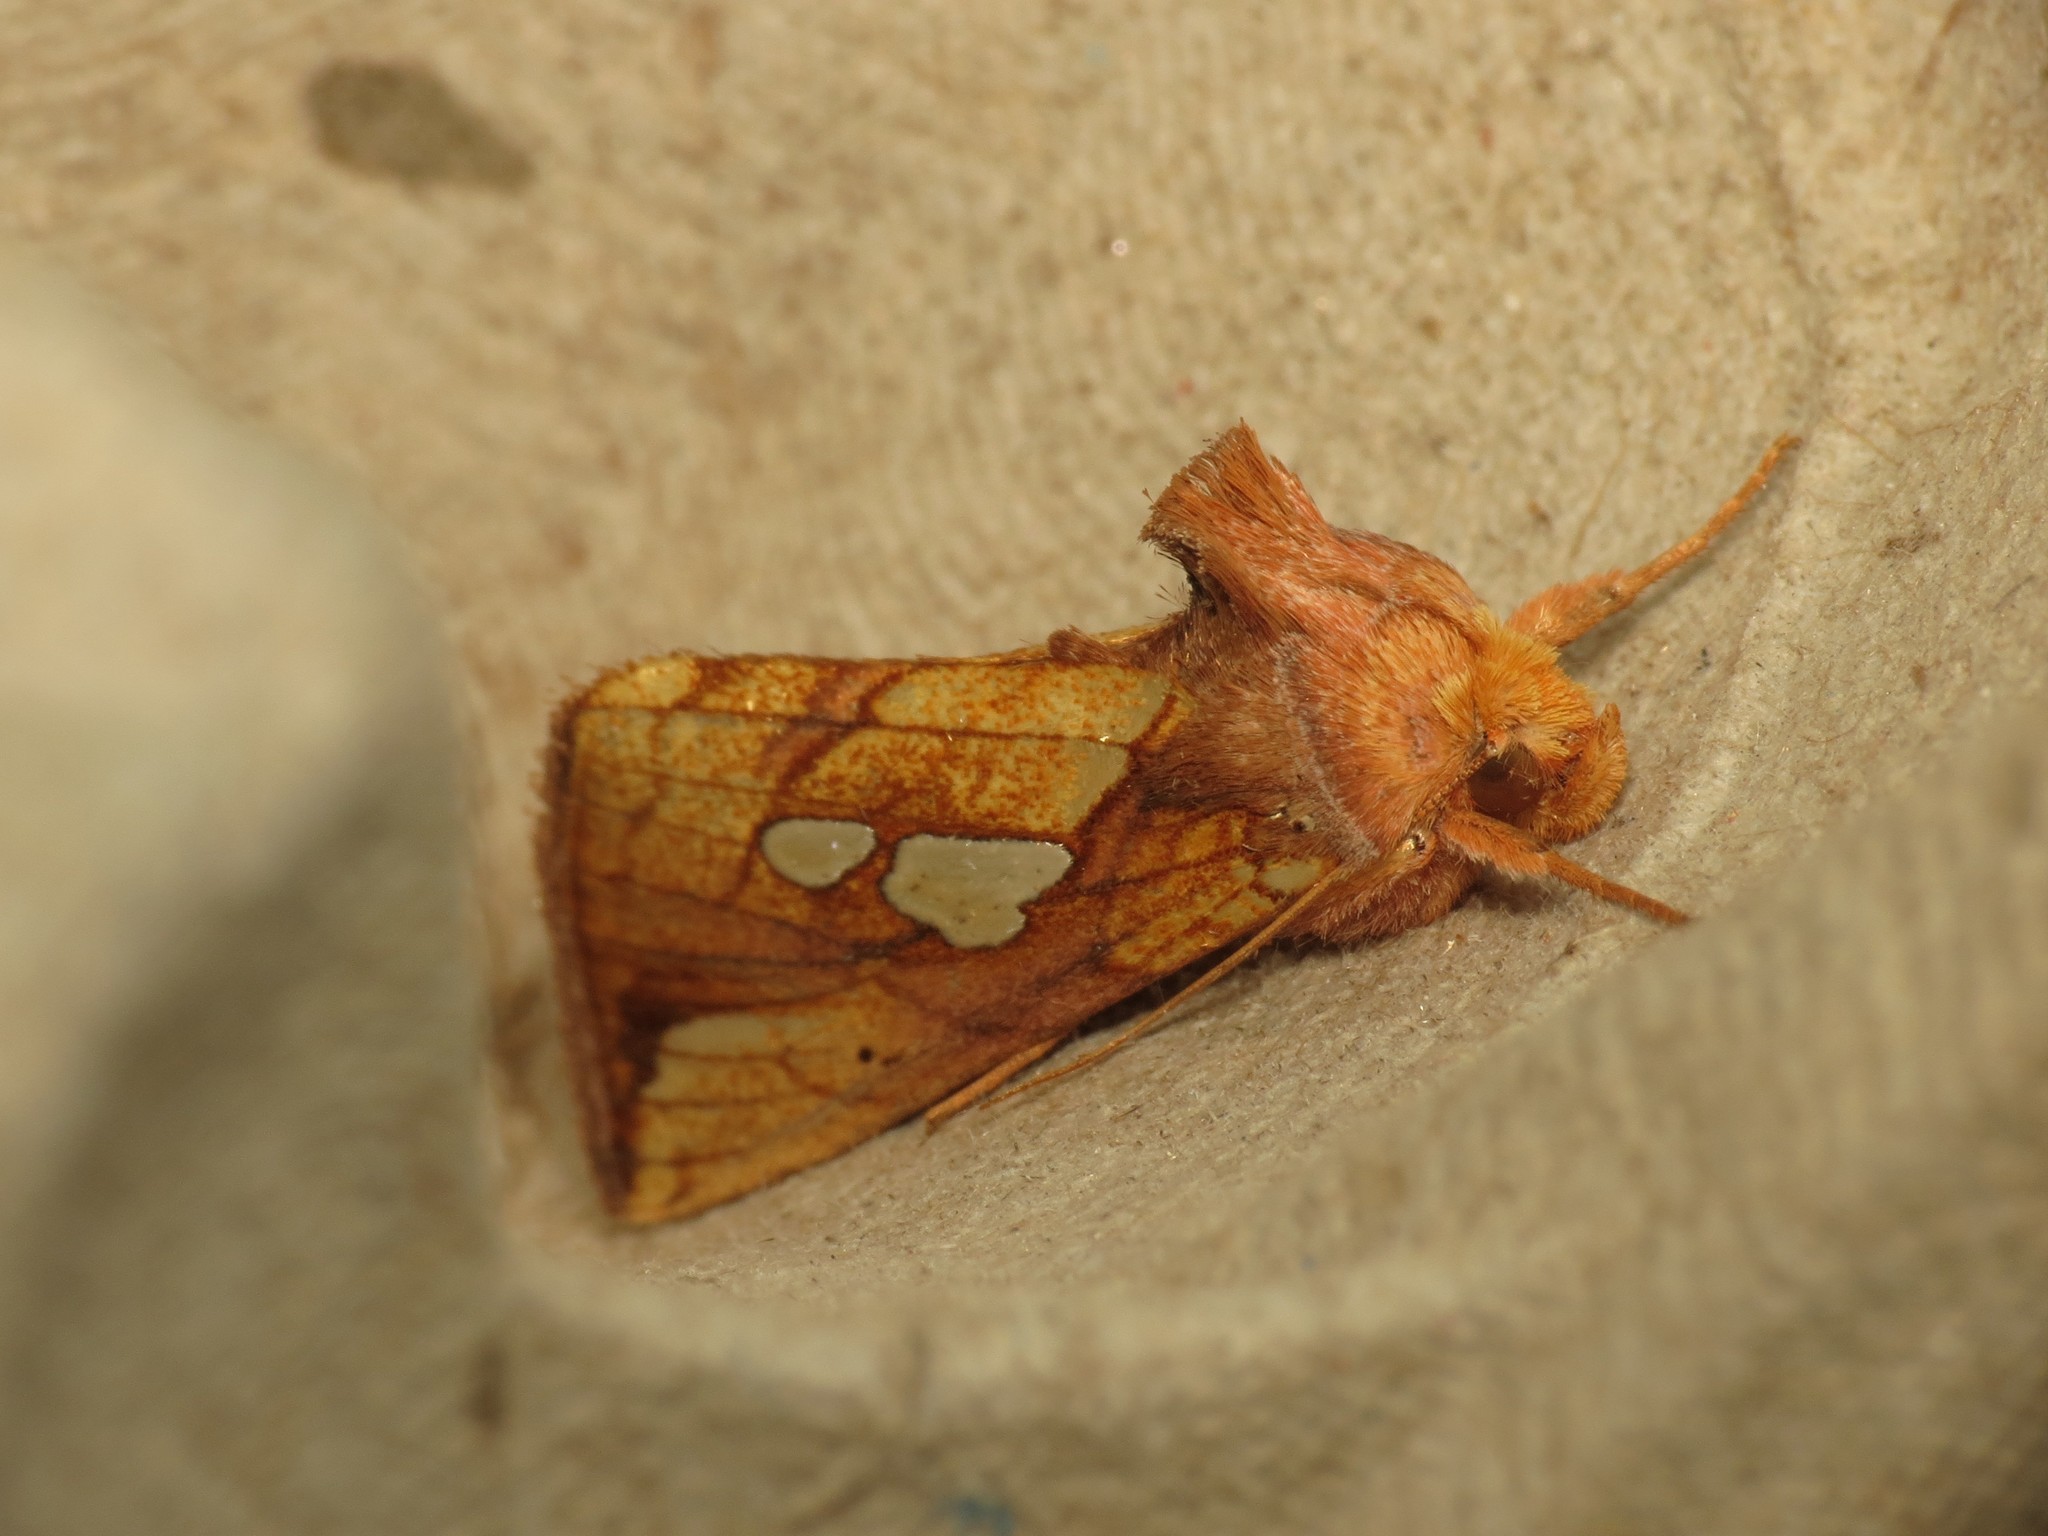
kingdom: Animalia
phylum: Arthropoda
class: Insecta
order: Lepidoptera
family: Noctuidae
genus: Plusia
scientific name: Plusia festucae
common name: Gold spot
